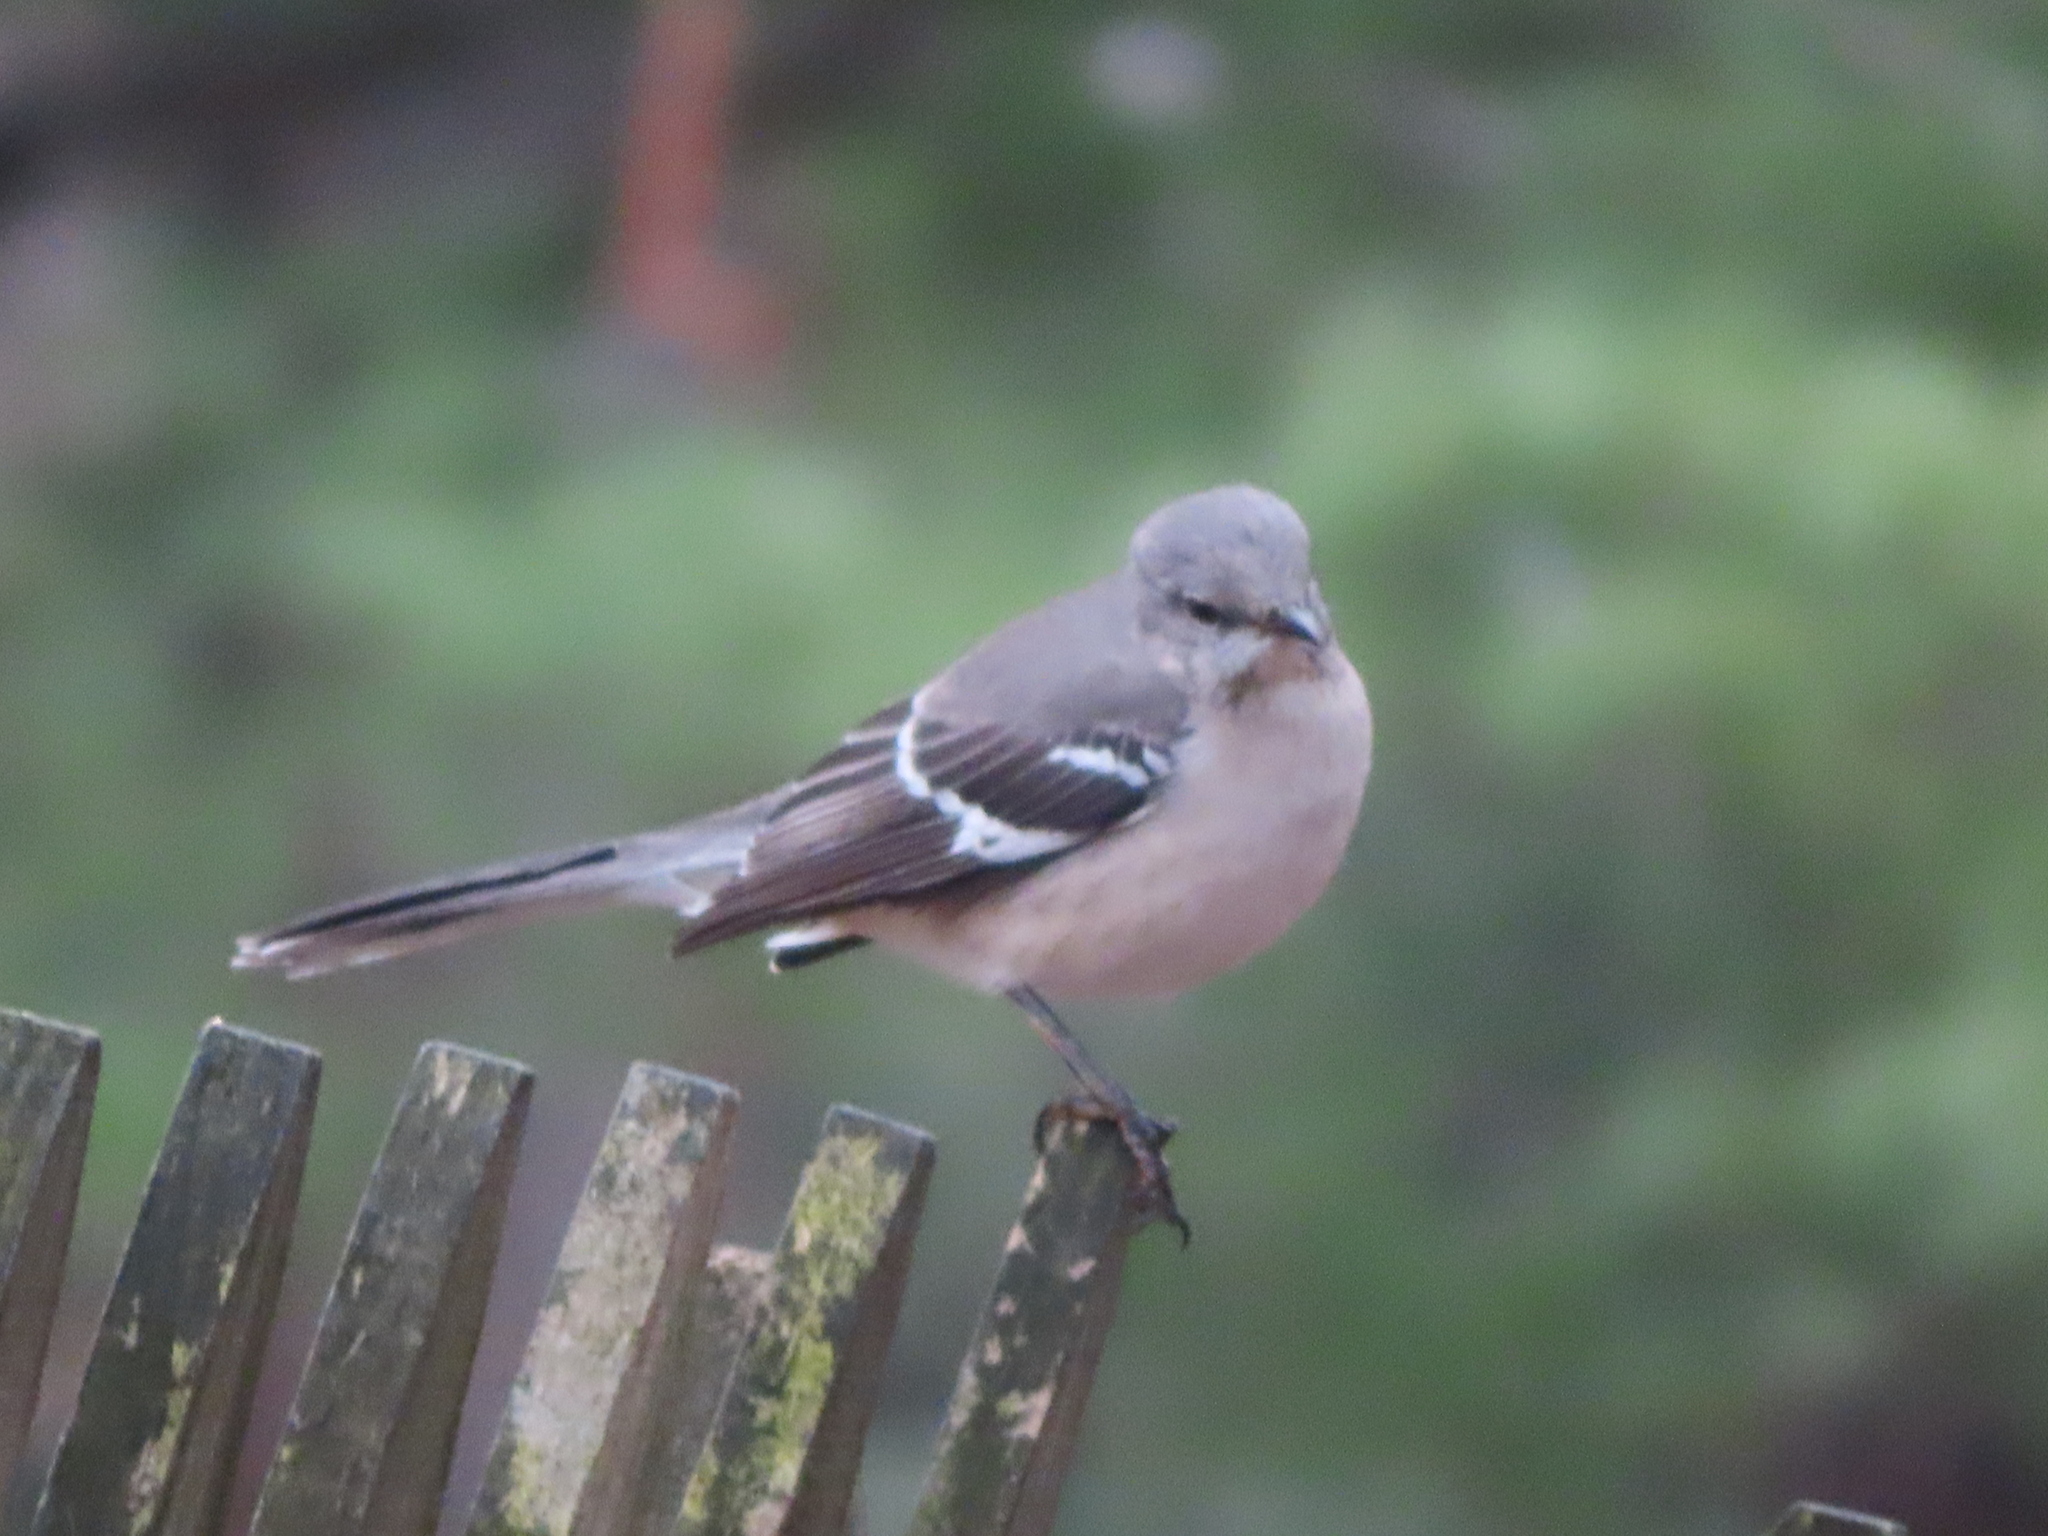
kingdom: Animalia
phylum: Chordata
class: Aves
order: Passeriformes
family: Mimidae
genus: Mimus
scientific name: Mimus polyglottos
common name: Northern mockingbird
